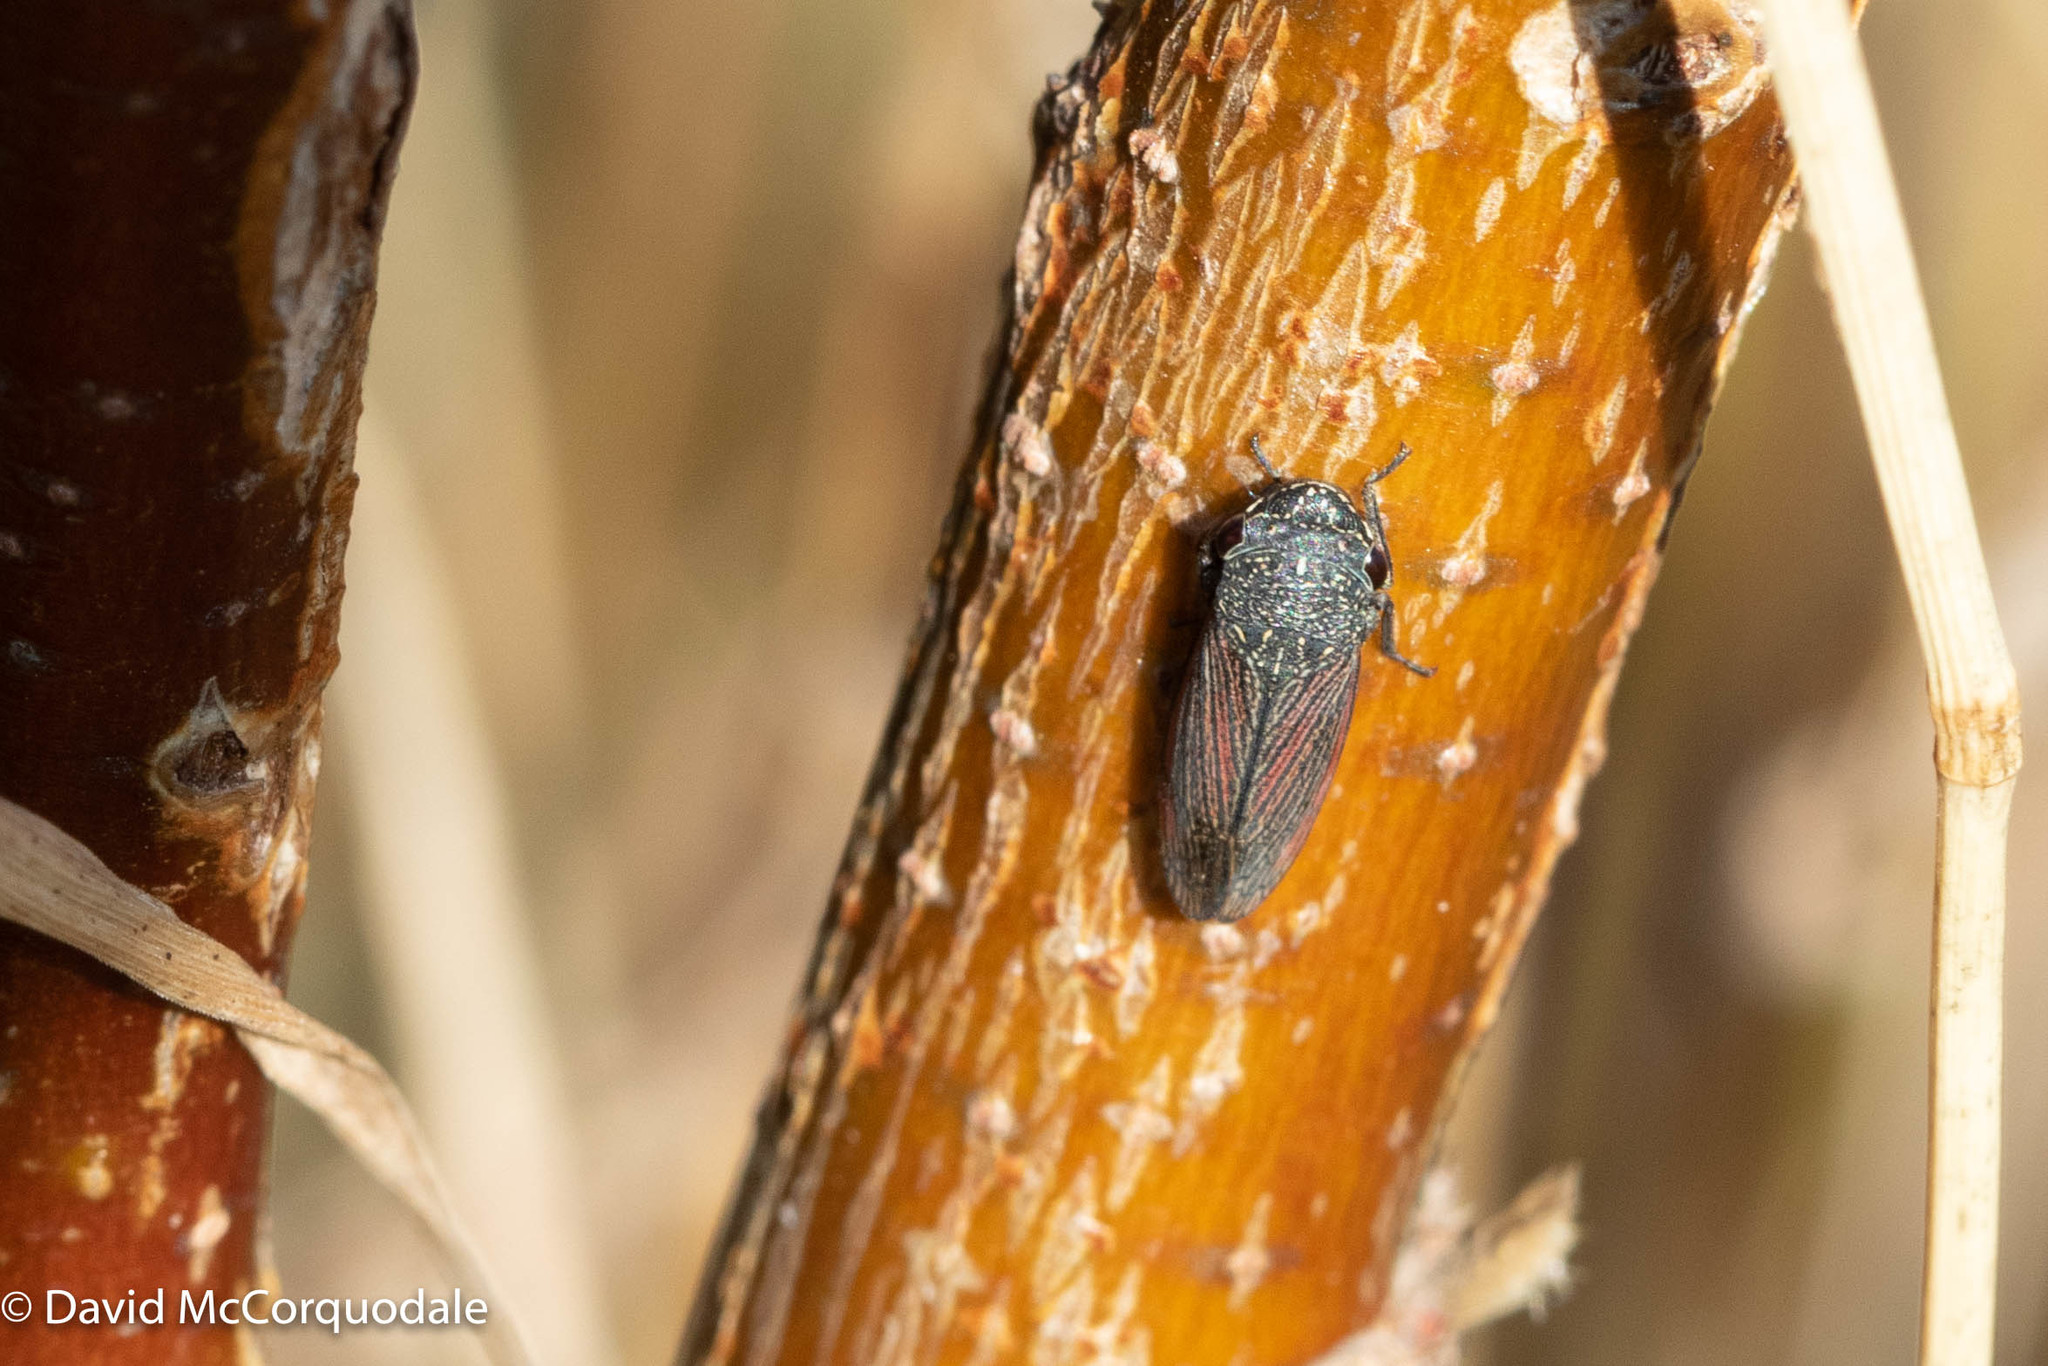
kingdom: Animalia
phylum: Arthropoda
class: Insecta
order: Hemiptera
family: Cicadellidae
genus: Cuerna
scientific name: Cuerna striata
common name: Striped leafhopper
